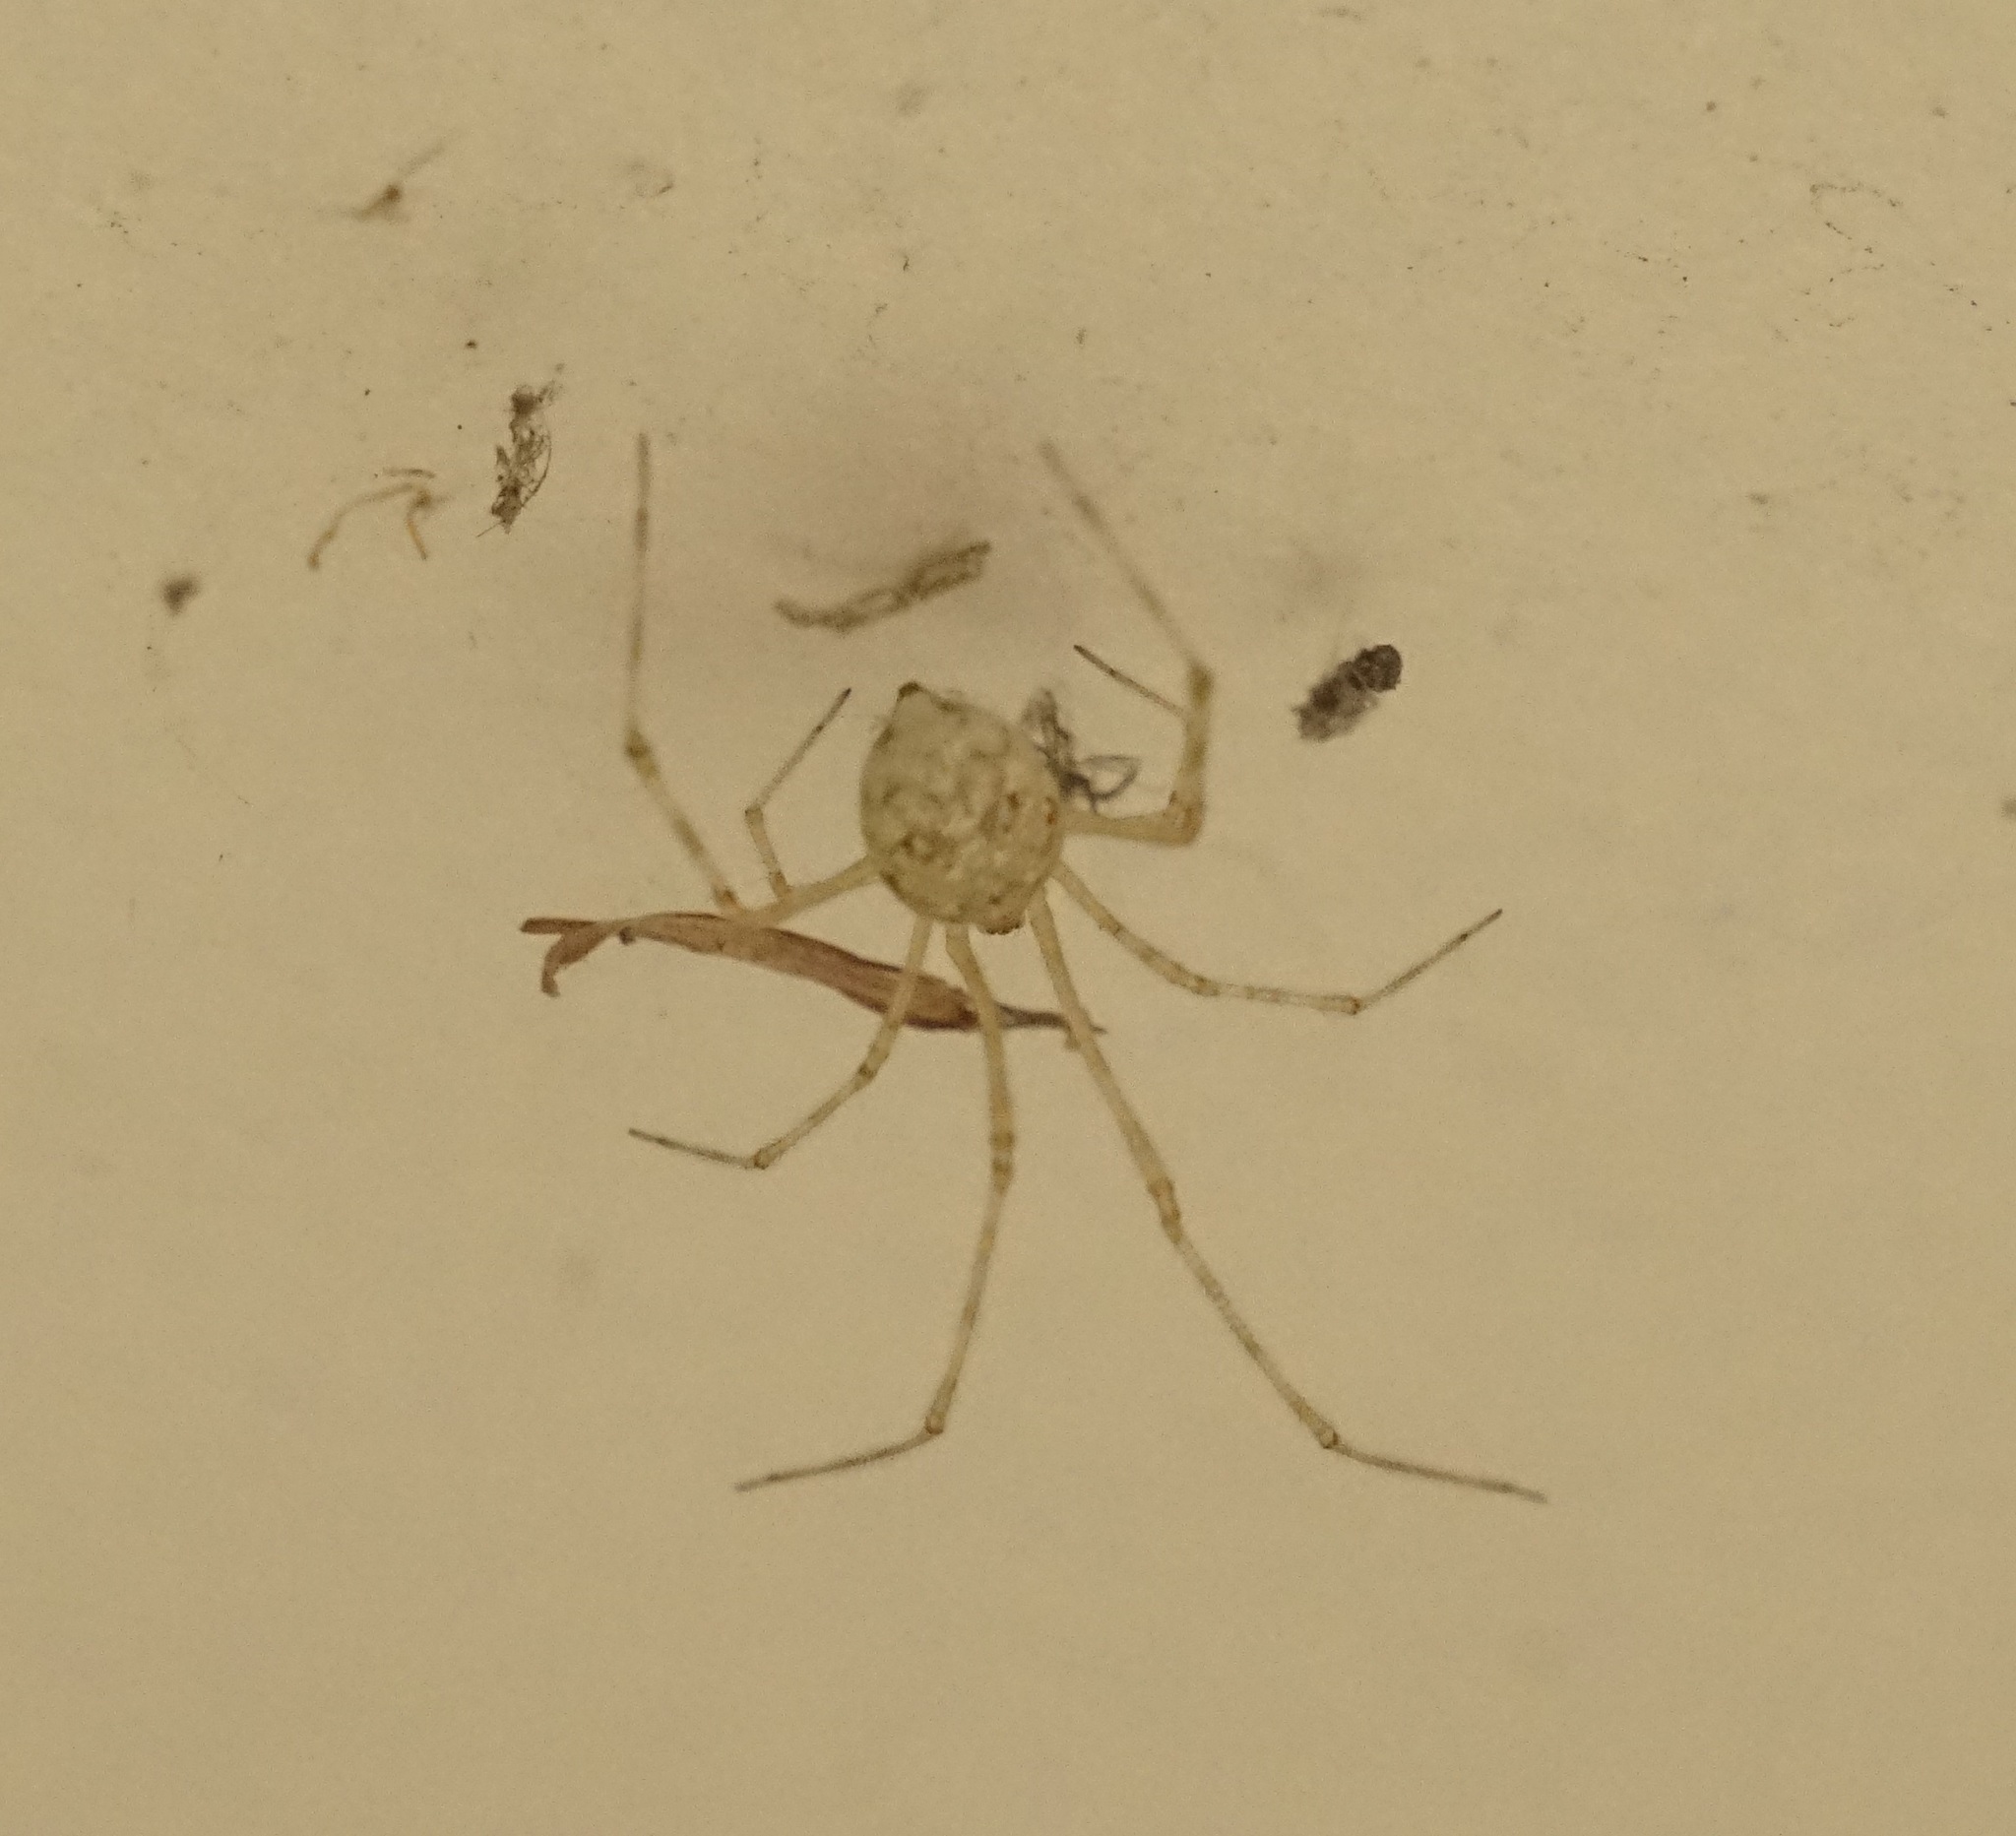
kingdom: Animalia
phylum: Arthropoda
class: Arachnida
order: Araneae
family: Theridiidae
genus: Cryptachaea
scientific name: Cryptachaea gigantipes
